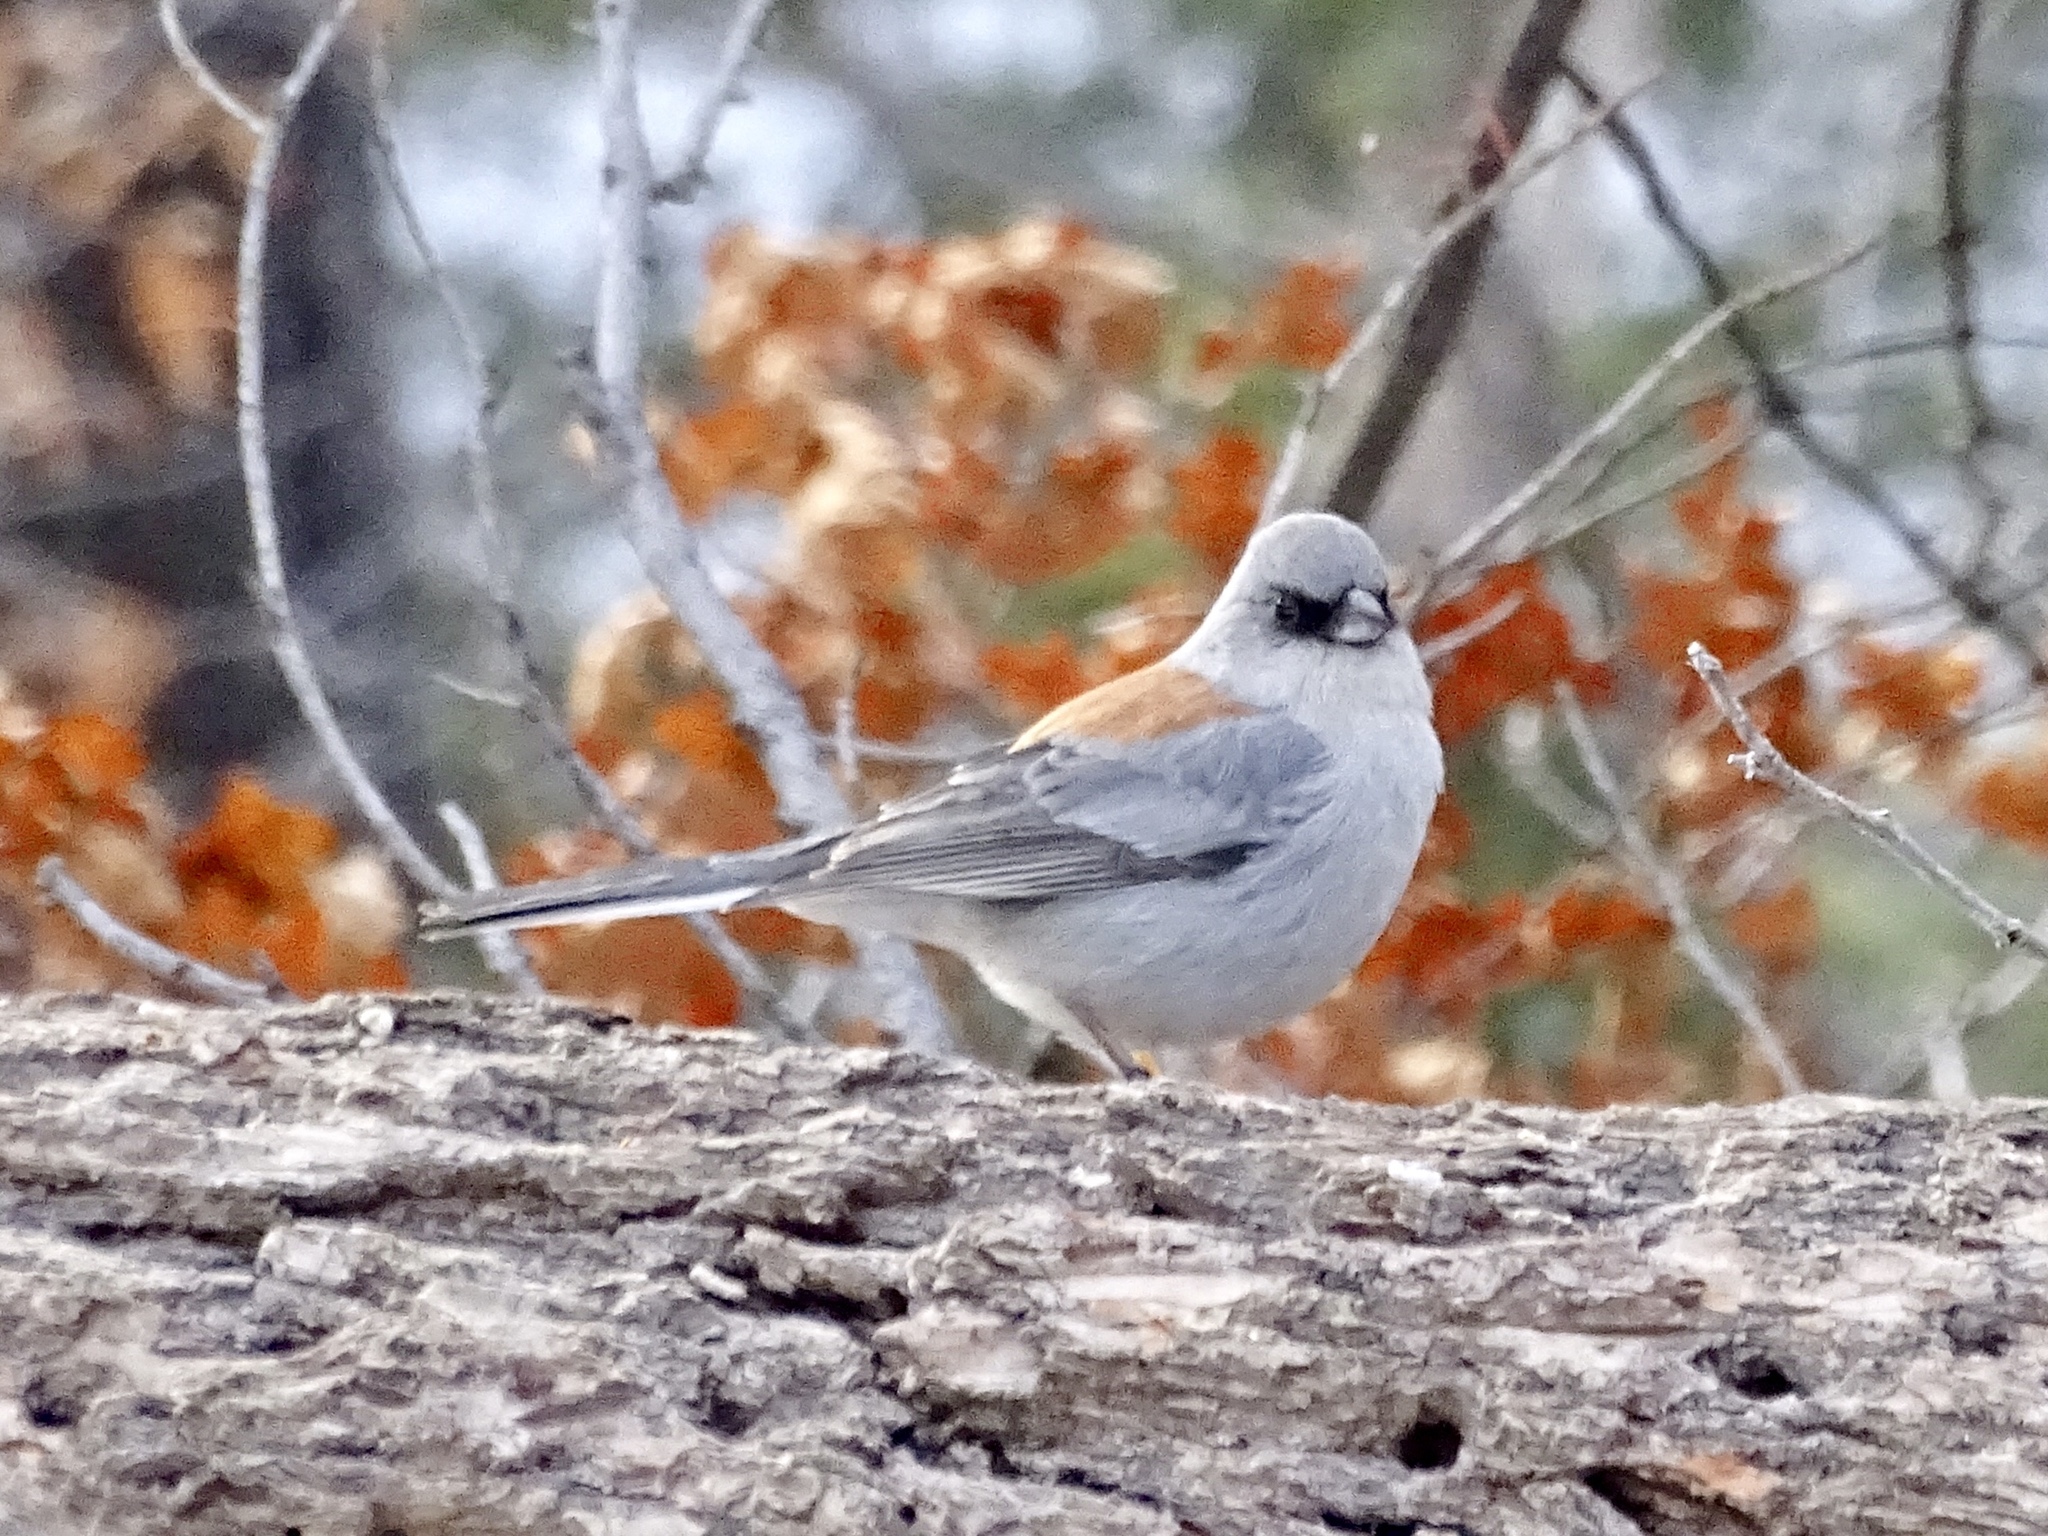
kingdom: Animalia
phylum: Chordata
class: Aves
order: Passeriformes
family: Passerellidae
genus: Junco
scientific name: Junco hyemalis
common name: Dark-eyed junco
